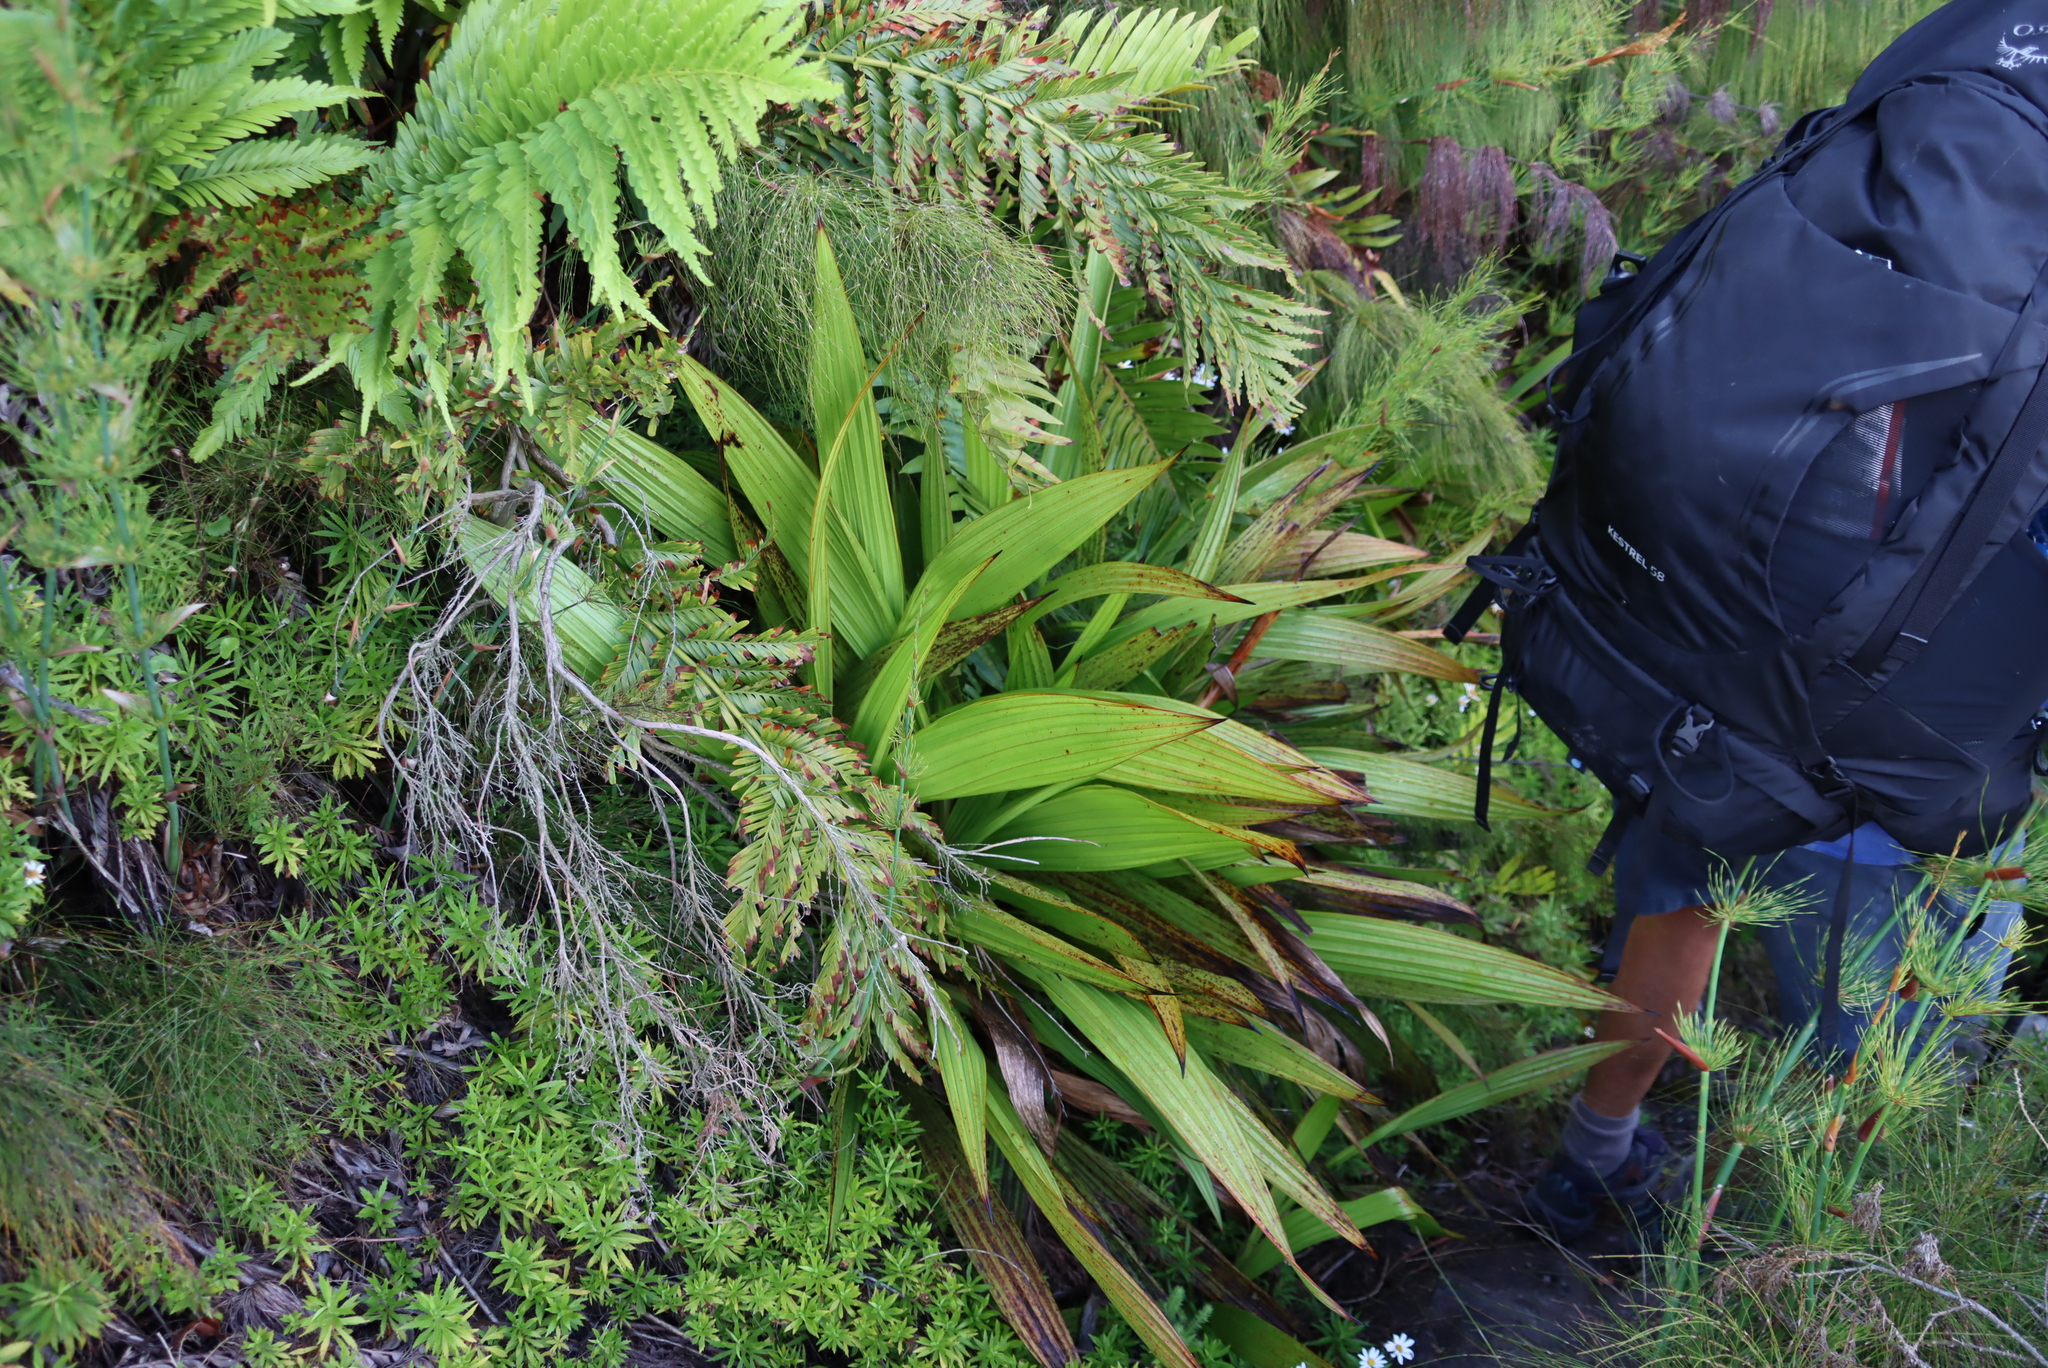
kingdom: Plantae
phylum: Tracheophyta
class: Liliopsida
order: Commelinales
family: Haemodoraceae
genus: Wachendorfia
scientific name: Wachendorfia thyrsiflora
